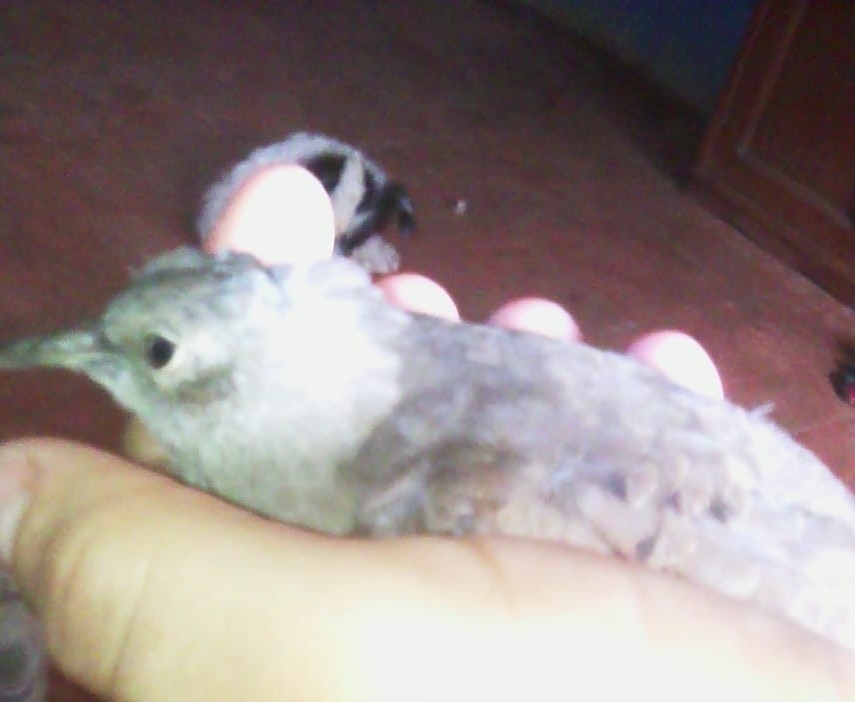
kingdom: Animalia
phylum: Chordata
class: Aves
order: Columbiformes
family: Columbidae
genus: Columbina
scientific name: Columbina talpacoti
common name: Ruddy ground dove
